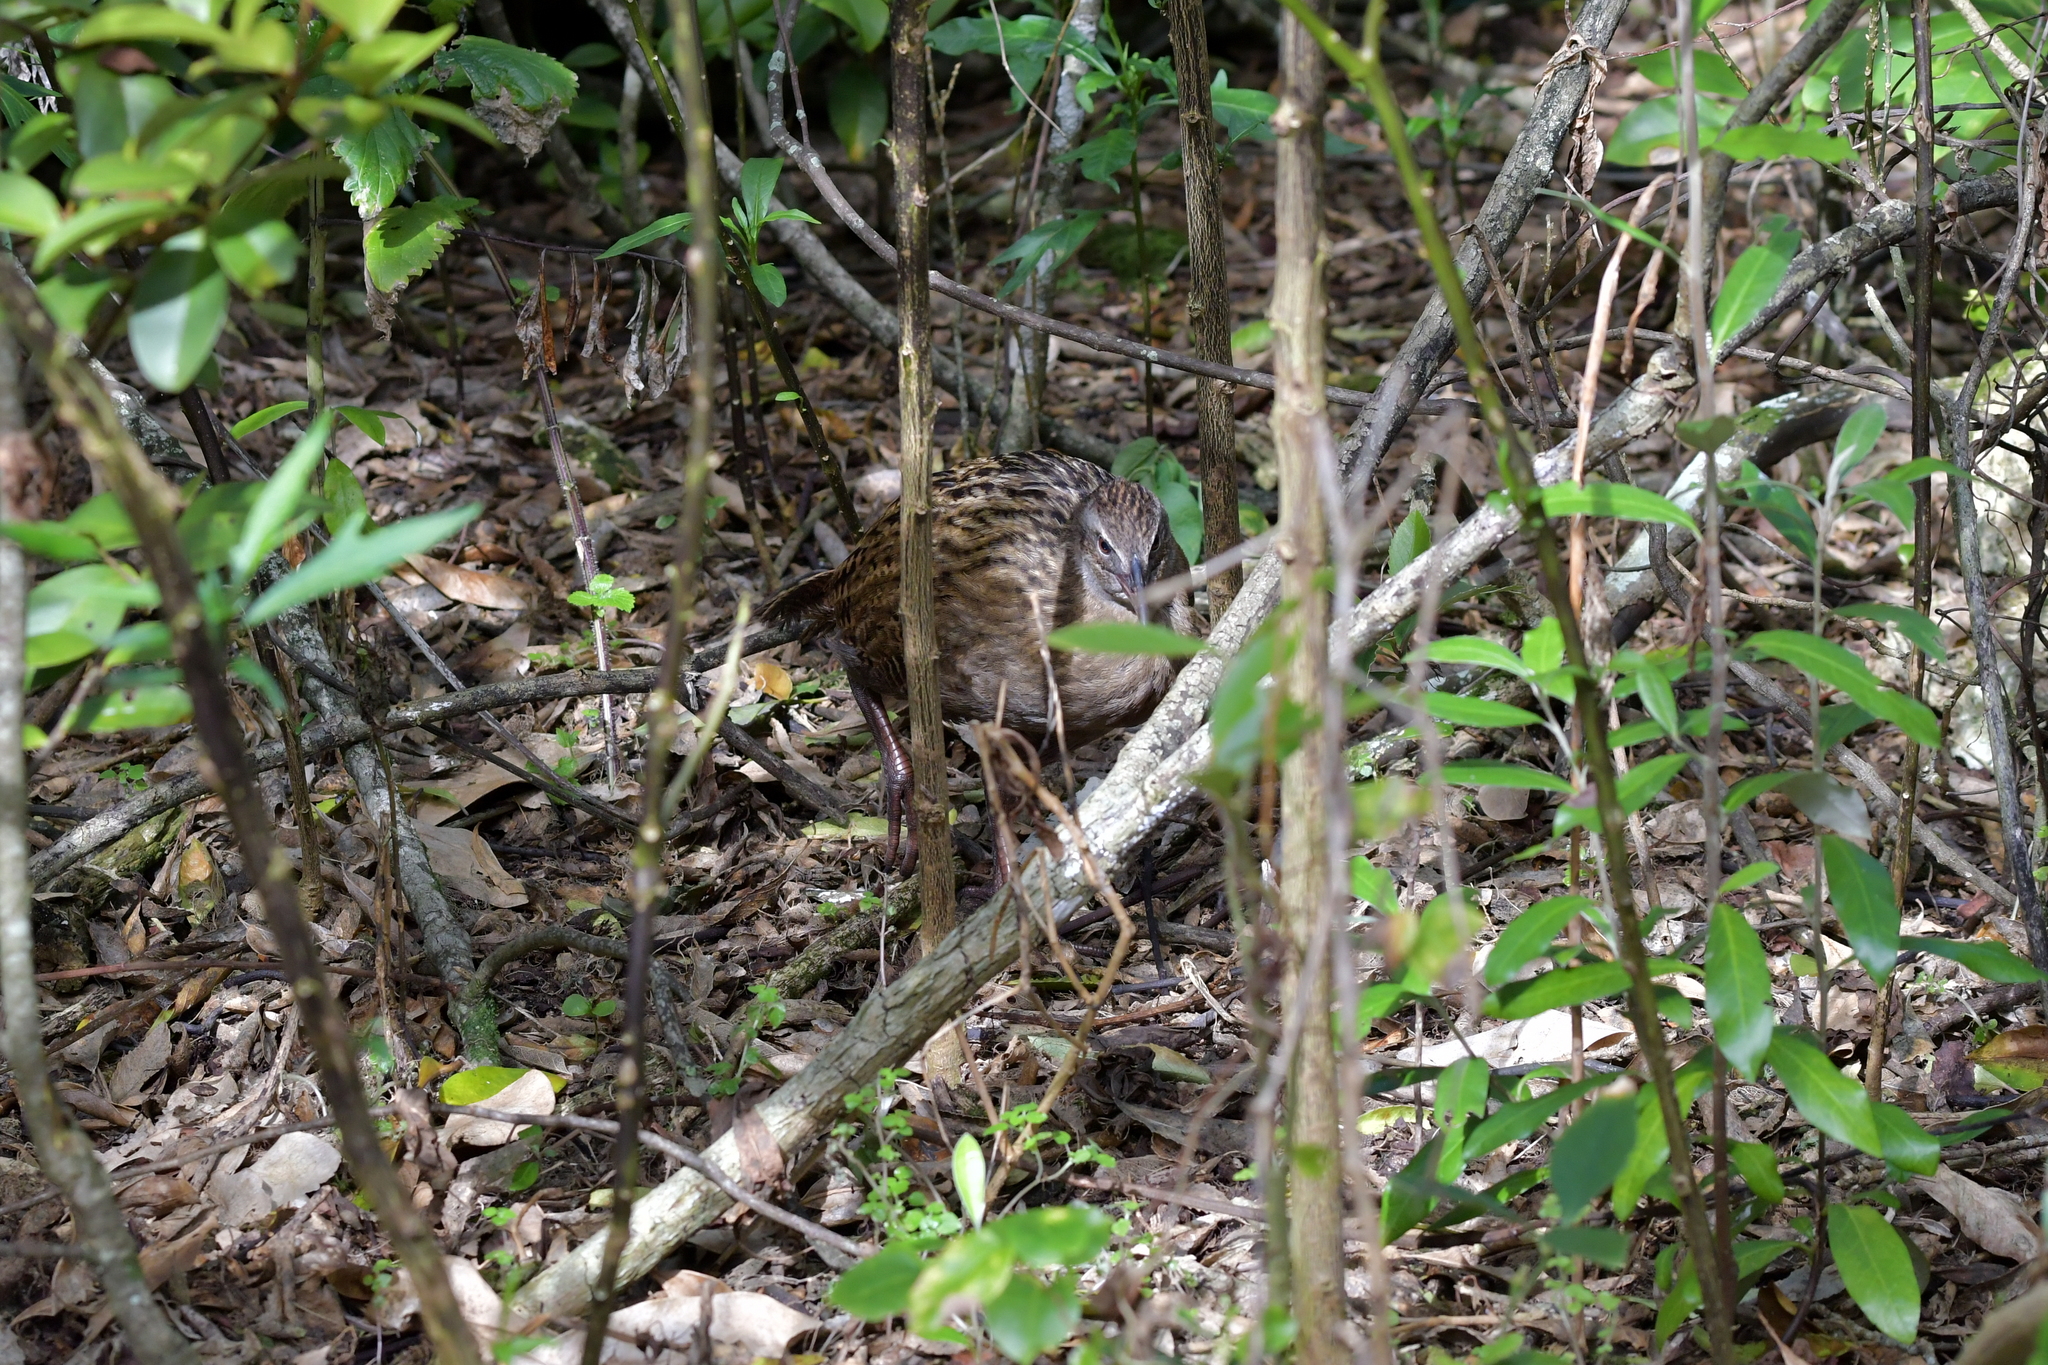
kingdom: Animalia
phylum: Chordata
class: Aves
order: Gruiformes
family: Rallidae
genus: Gallirallus
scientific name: Gallirallus australis
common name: Weka
